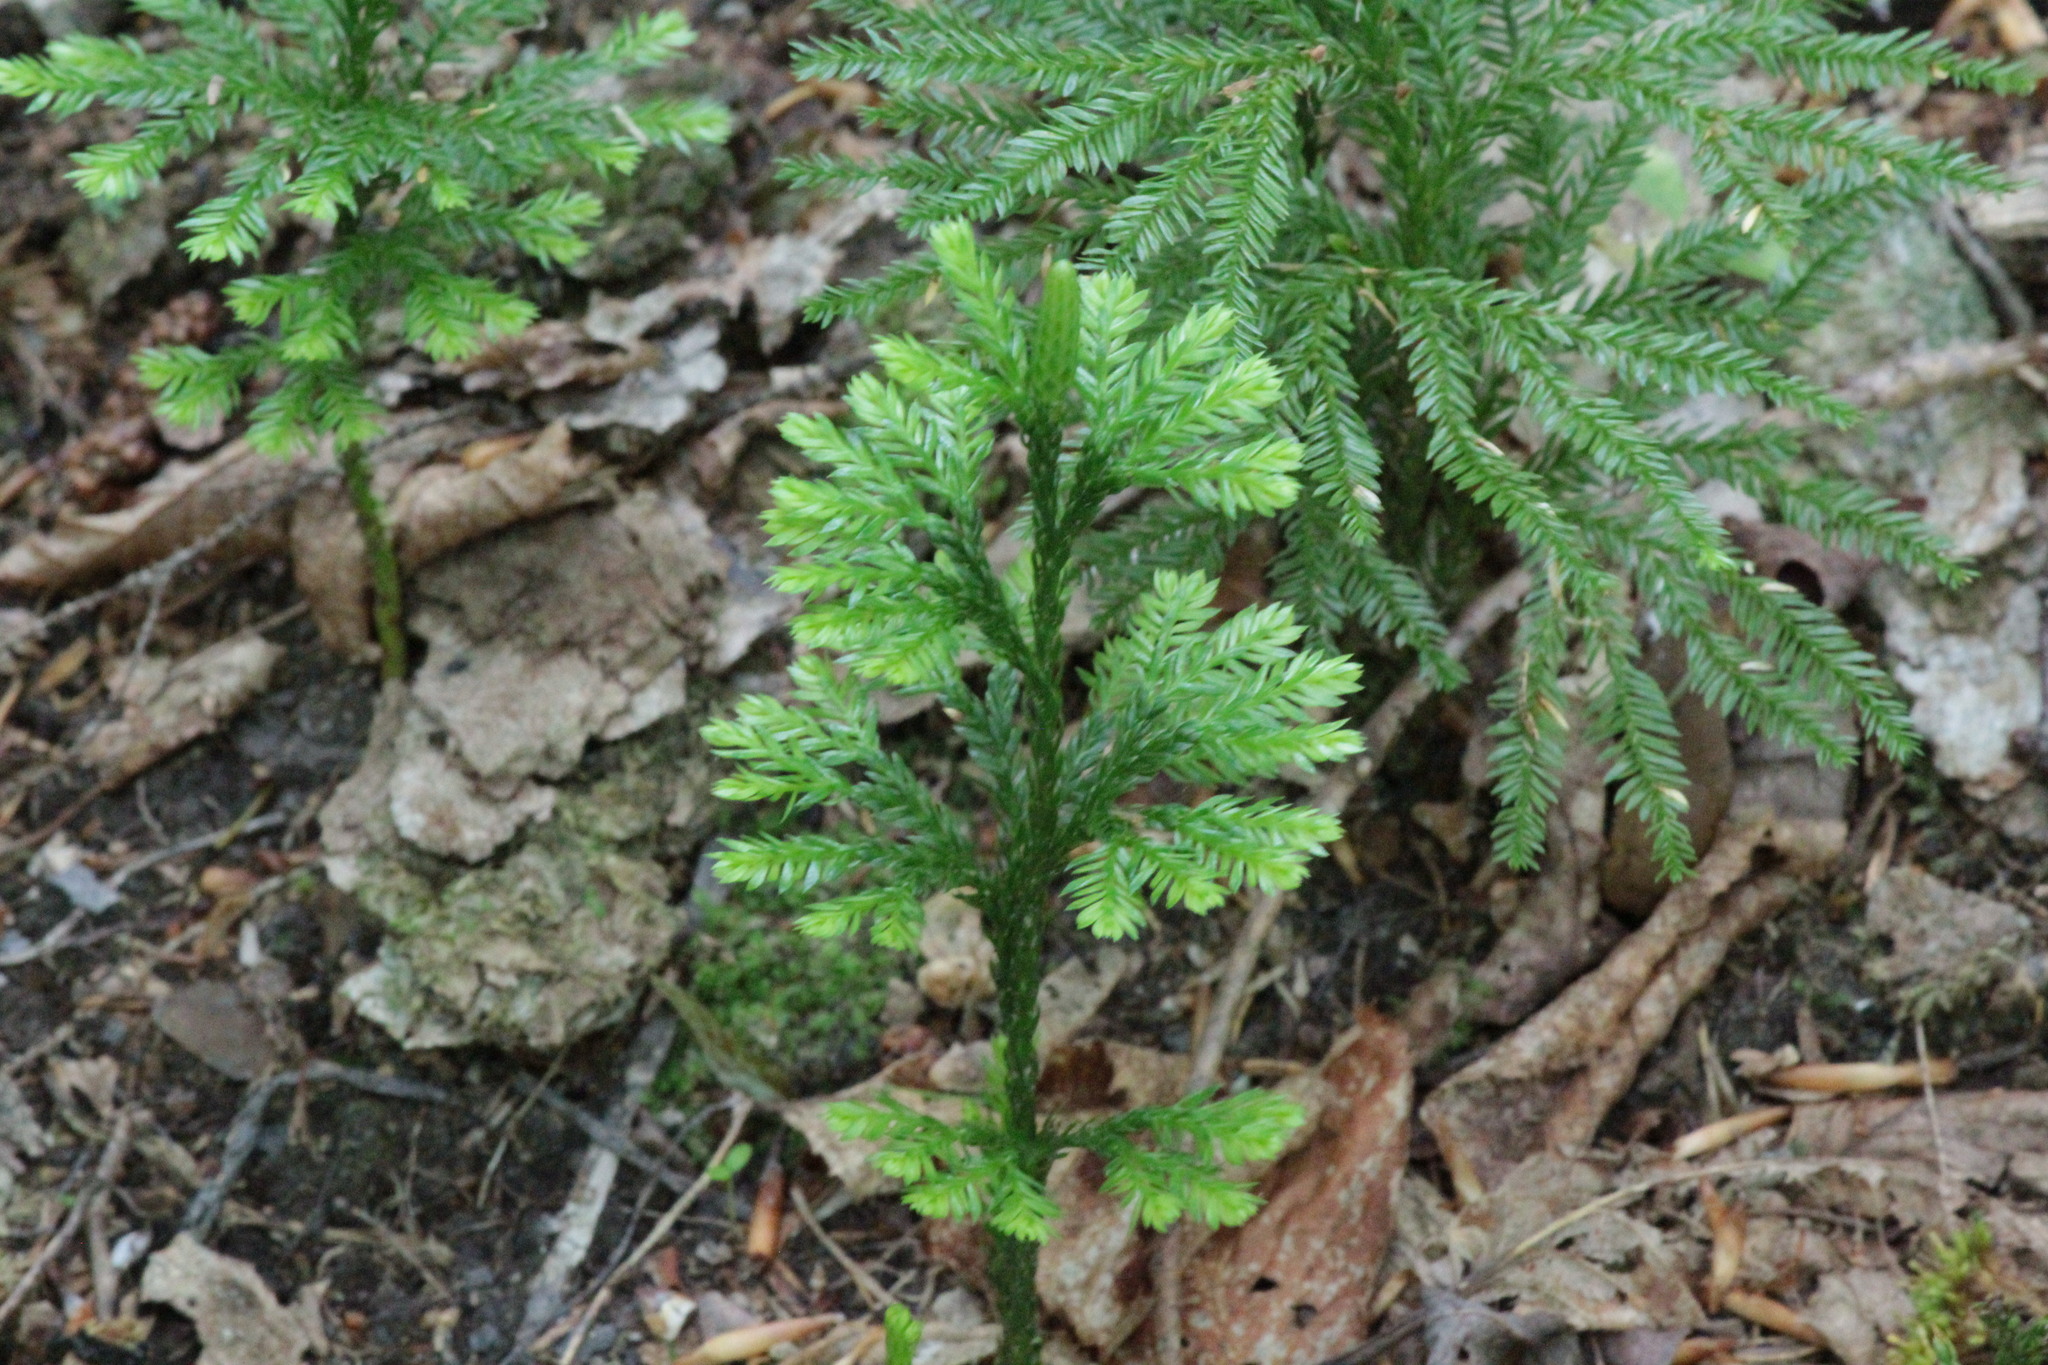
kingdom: Plantae
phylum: Tracheophyta
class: Lycopodiopsida
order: Lycopodiales
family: Lycopodiaceae
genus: Dendrolycopodium
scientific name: Dendrolycopodium obscurum
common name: Common ground-pine
